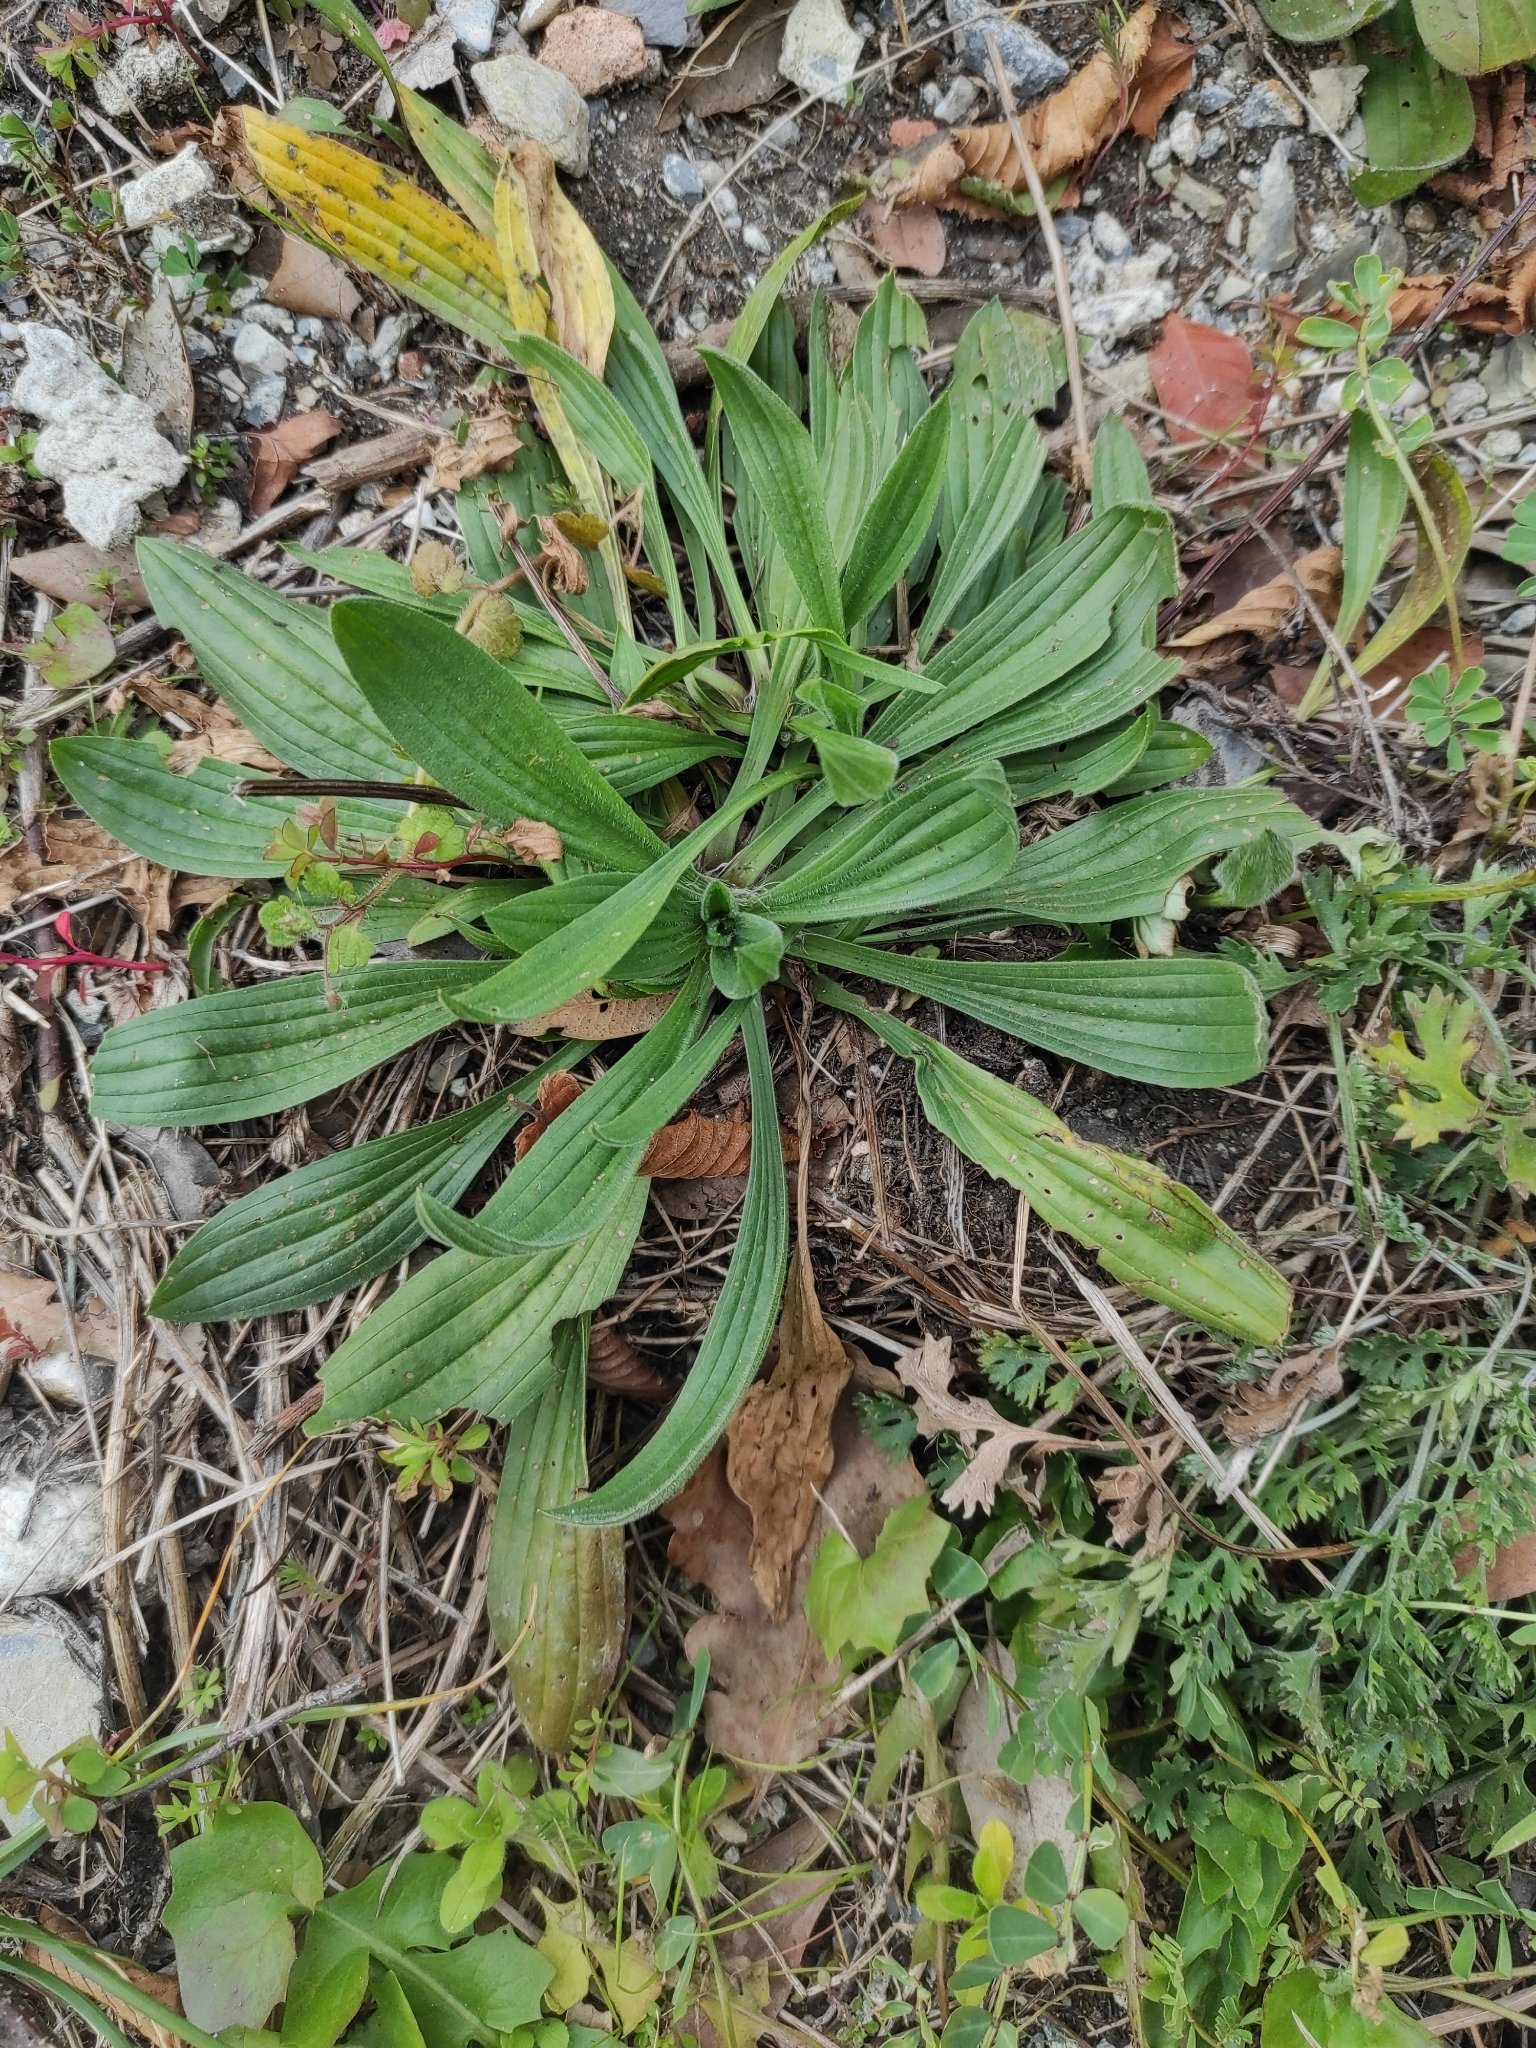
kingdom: Plantae
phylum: Tracheophyta
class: Magnoliopsida
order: Lamiales
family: Plantaginaceae
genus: Plantago
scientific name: Plantago lanceolata
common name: Ribwort plantain
